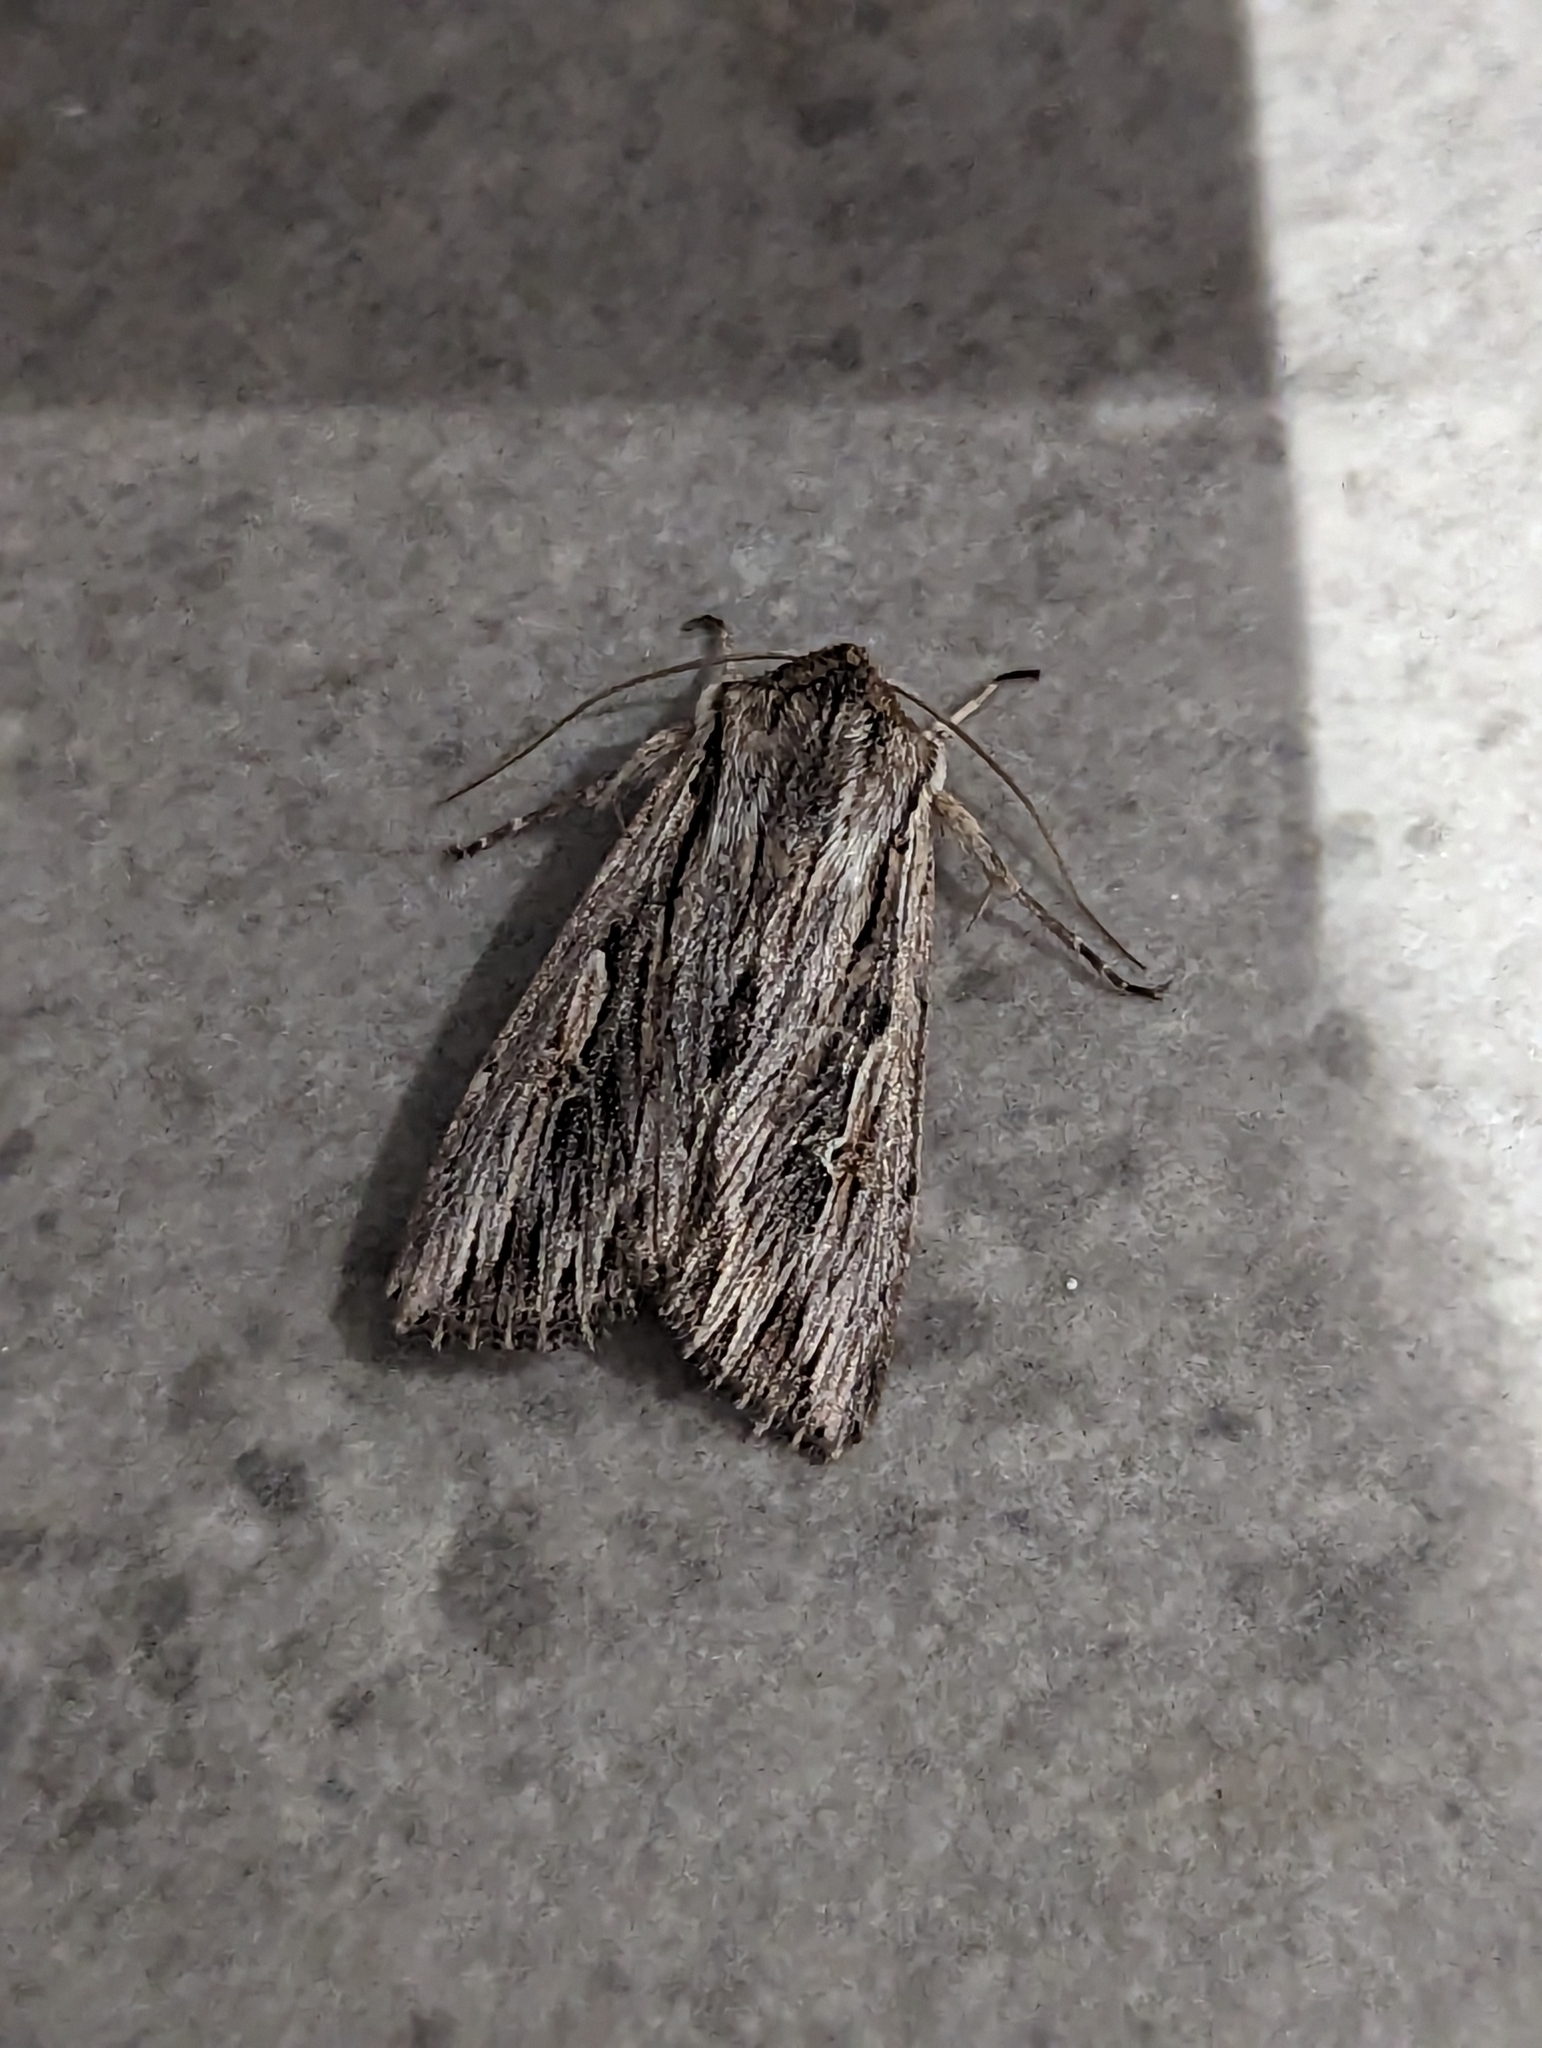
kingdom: Animalia
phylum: Arthropoda
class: Insecta
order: Lepidoptera
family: Noctuidae
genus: Persectania
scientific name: Persectania ewingii
